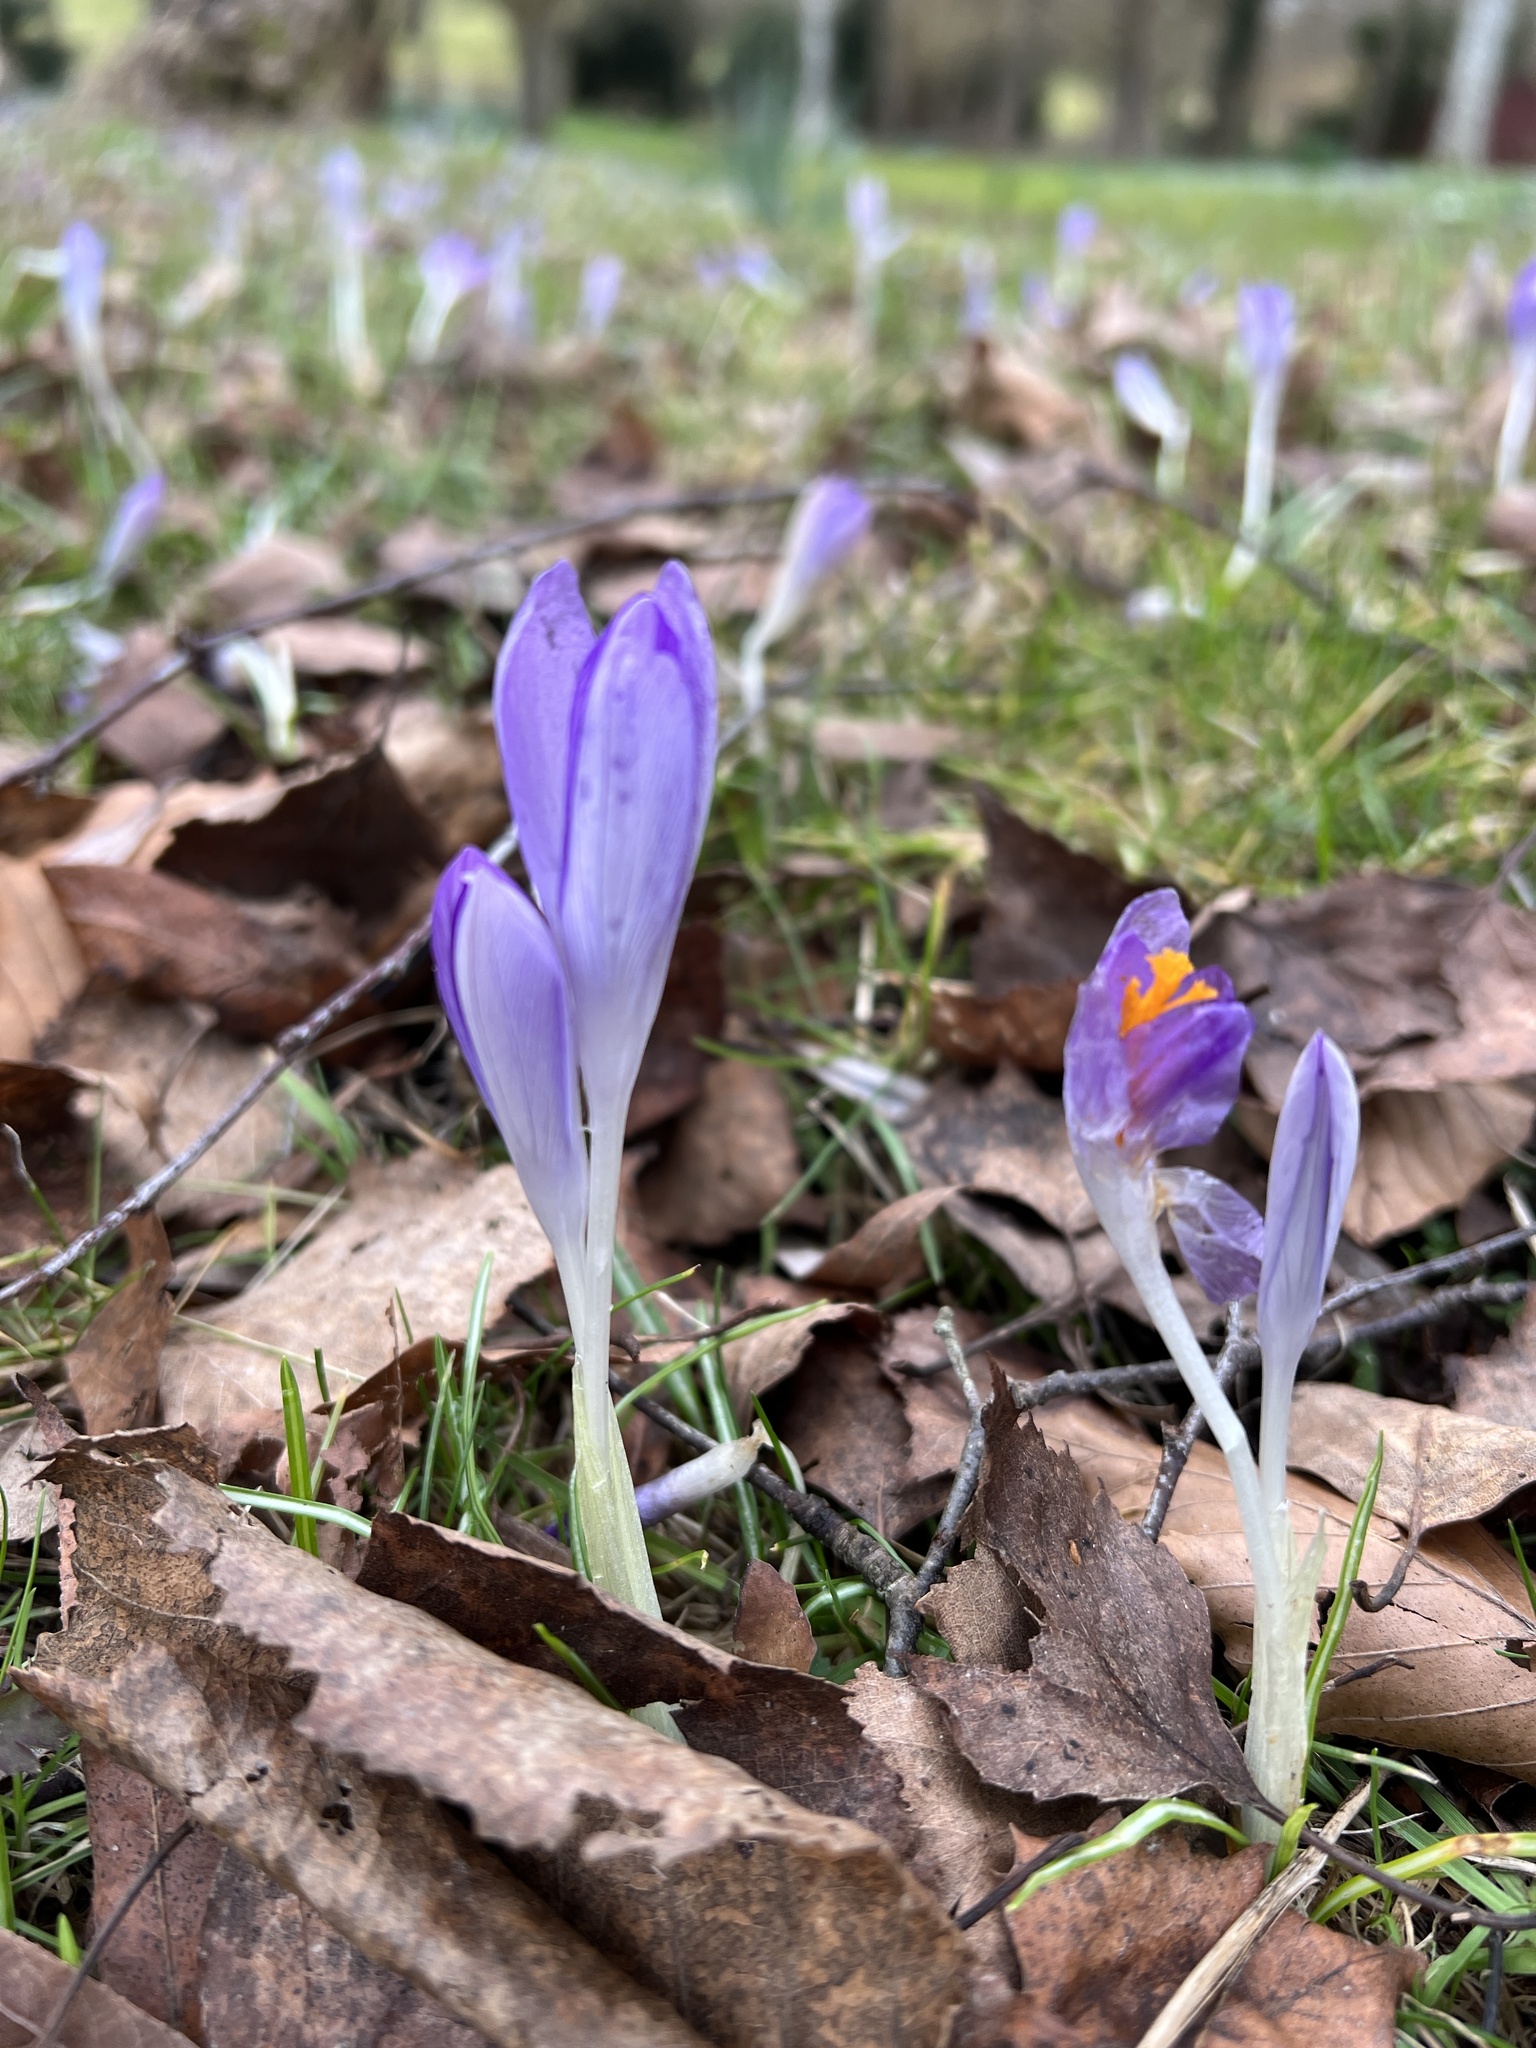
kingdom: Plantae
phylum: Tracheophyta
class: Liliopsida
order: Asparagales
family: Iridaceae
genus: Crocus
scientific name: Crocus tommasinianus
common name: Early crocus
